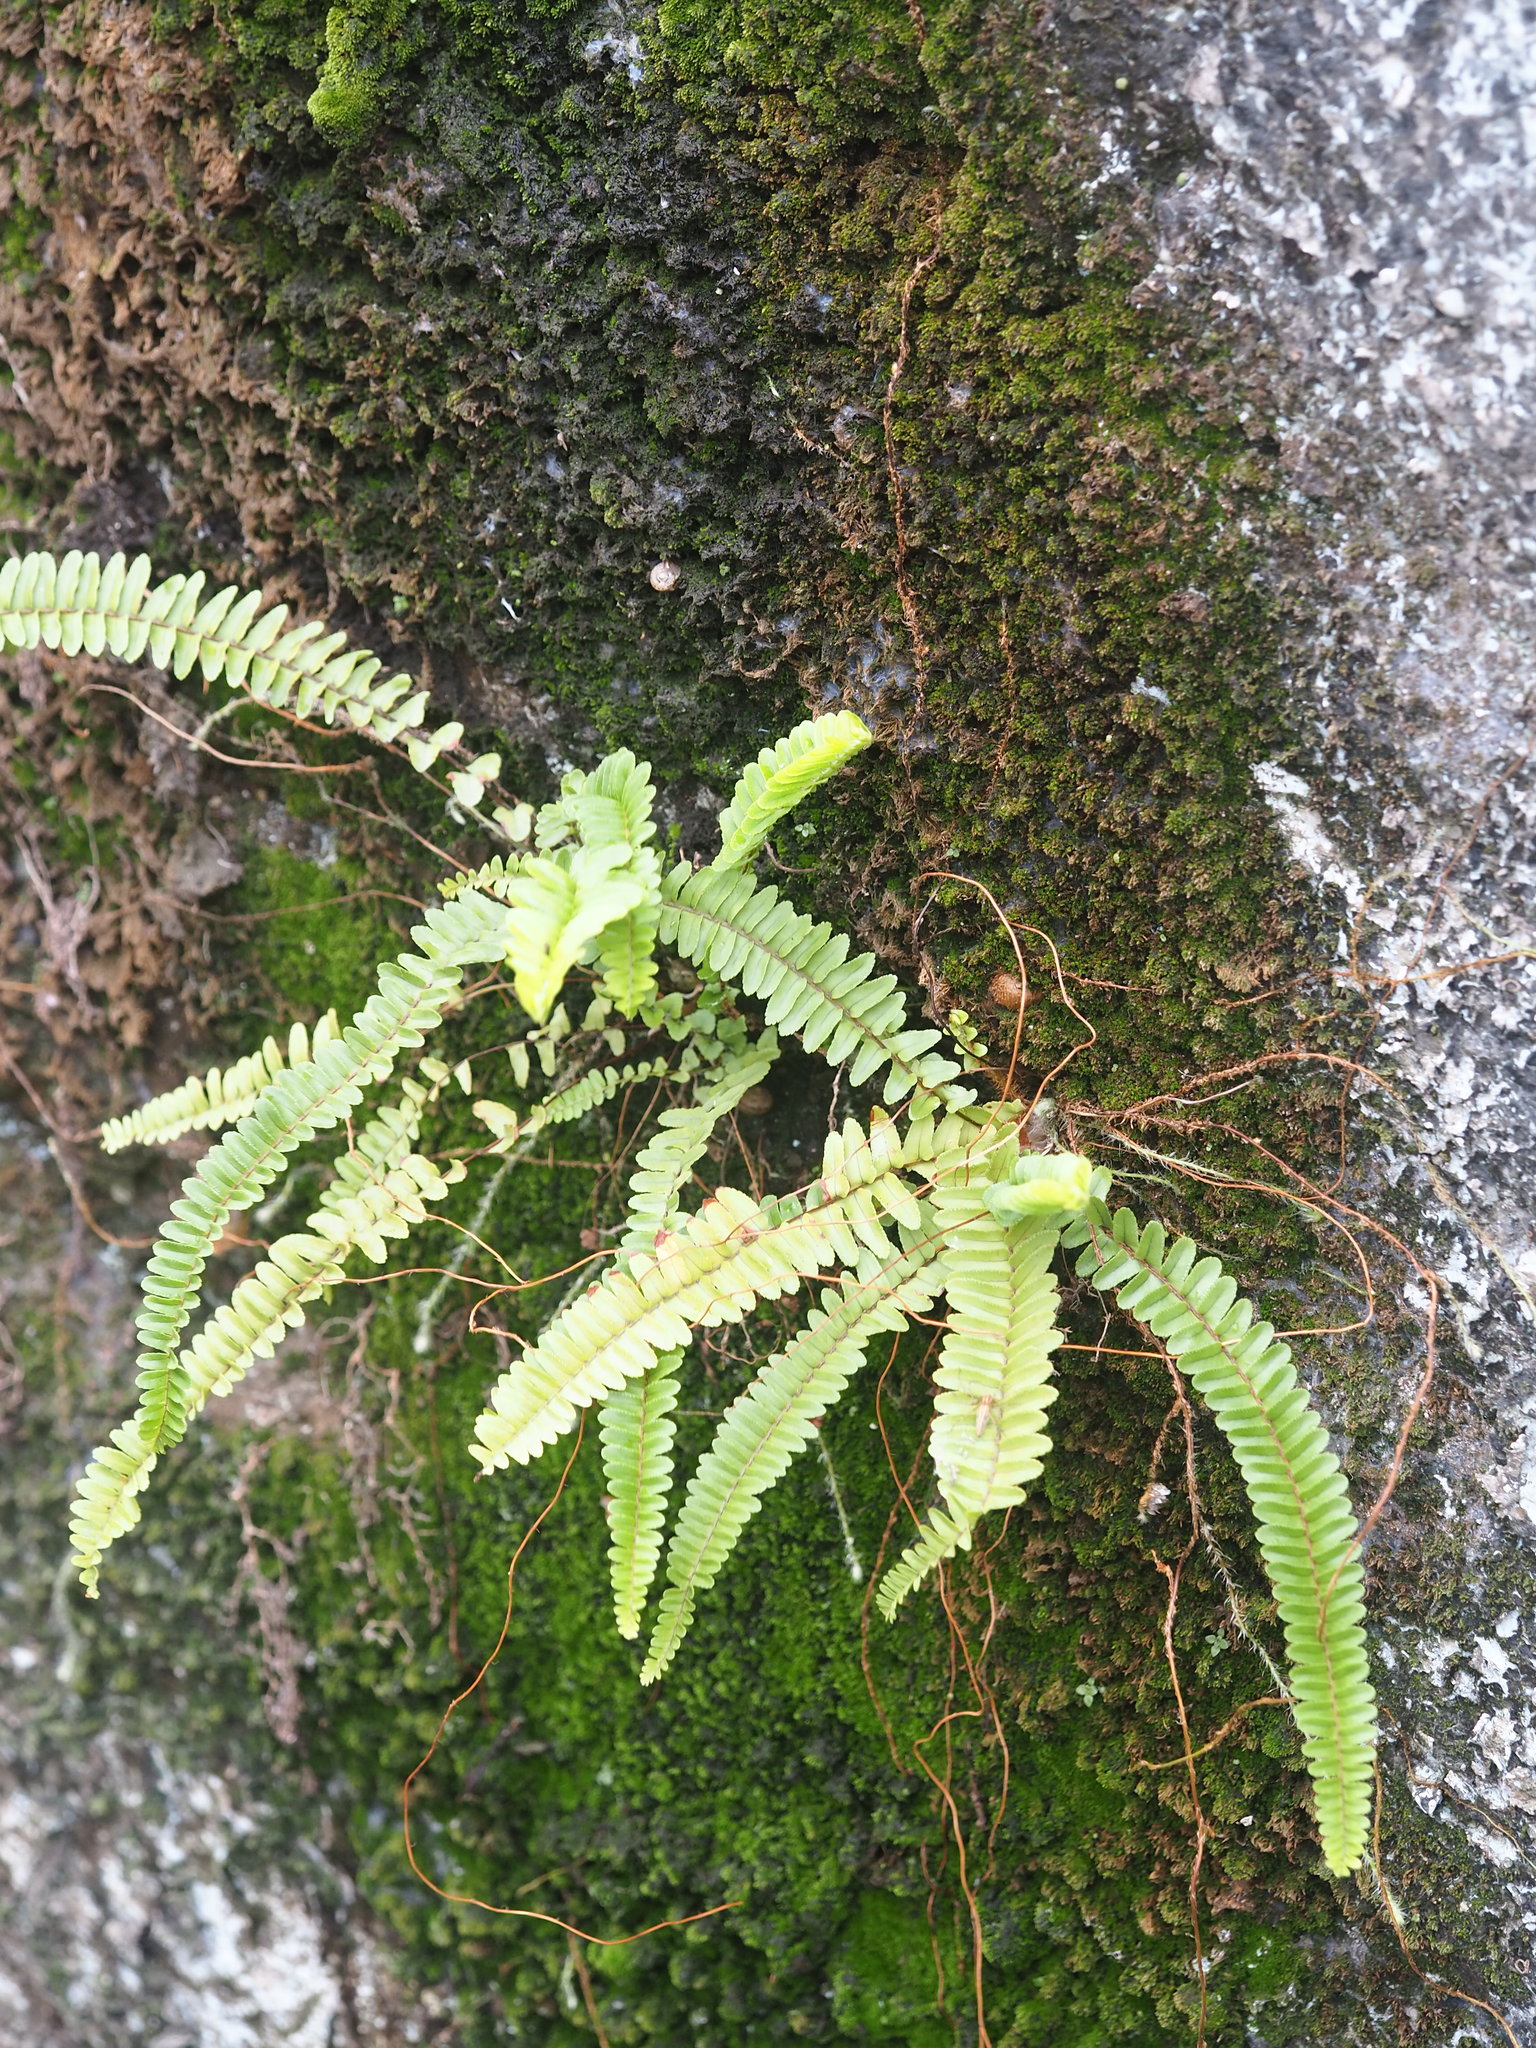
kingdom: Plantae
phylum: Tracheophyta
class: Polypodiopsida
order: Polypodiales
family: Nephrolepidaceae
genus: Nephrolepis
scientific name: Nephrolepis cordifolia
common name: Narrow swordfern
